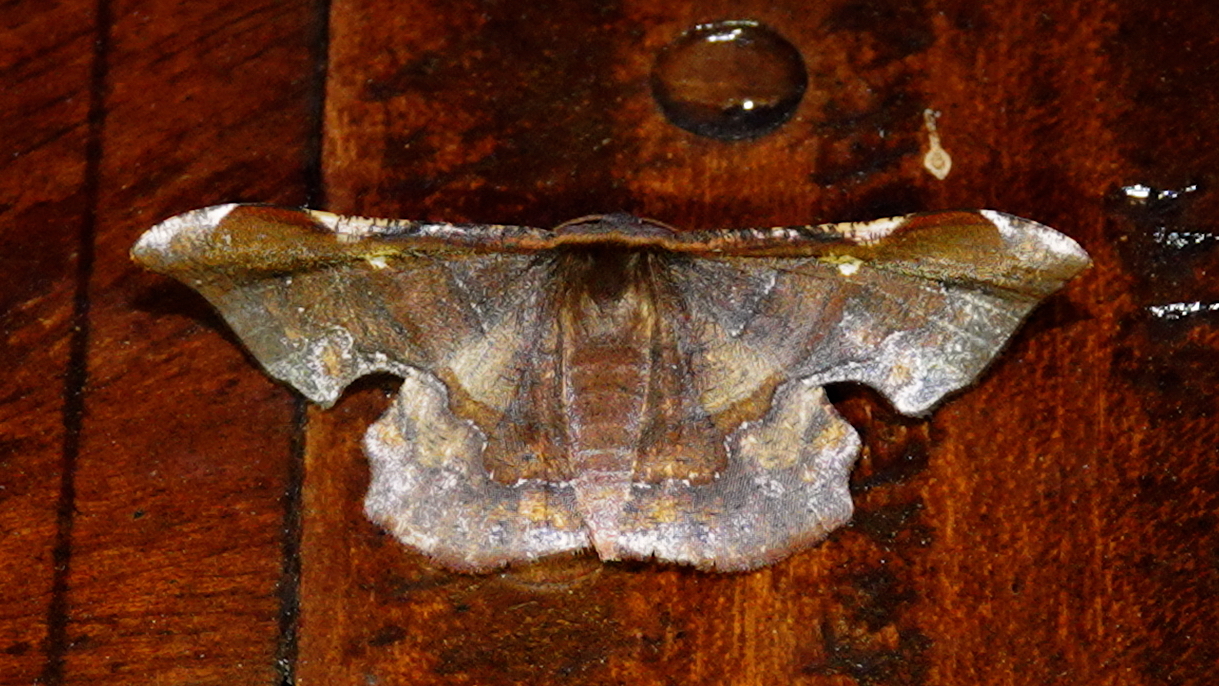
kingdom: Animalia
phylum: Arthropoda
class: Insecta
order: Lepidoptera
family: Geometridae
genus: Fascellina
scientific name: Fascellina chromataria
